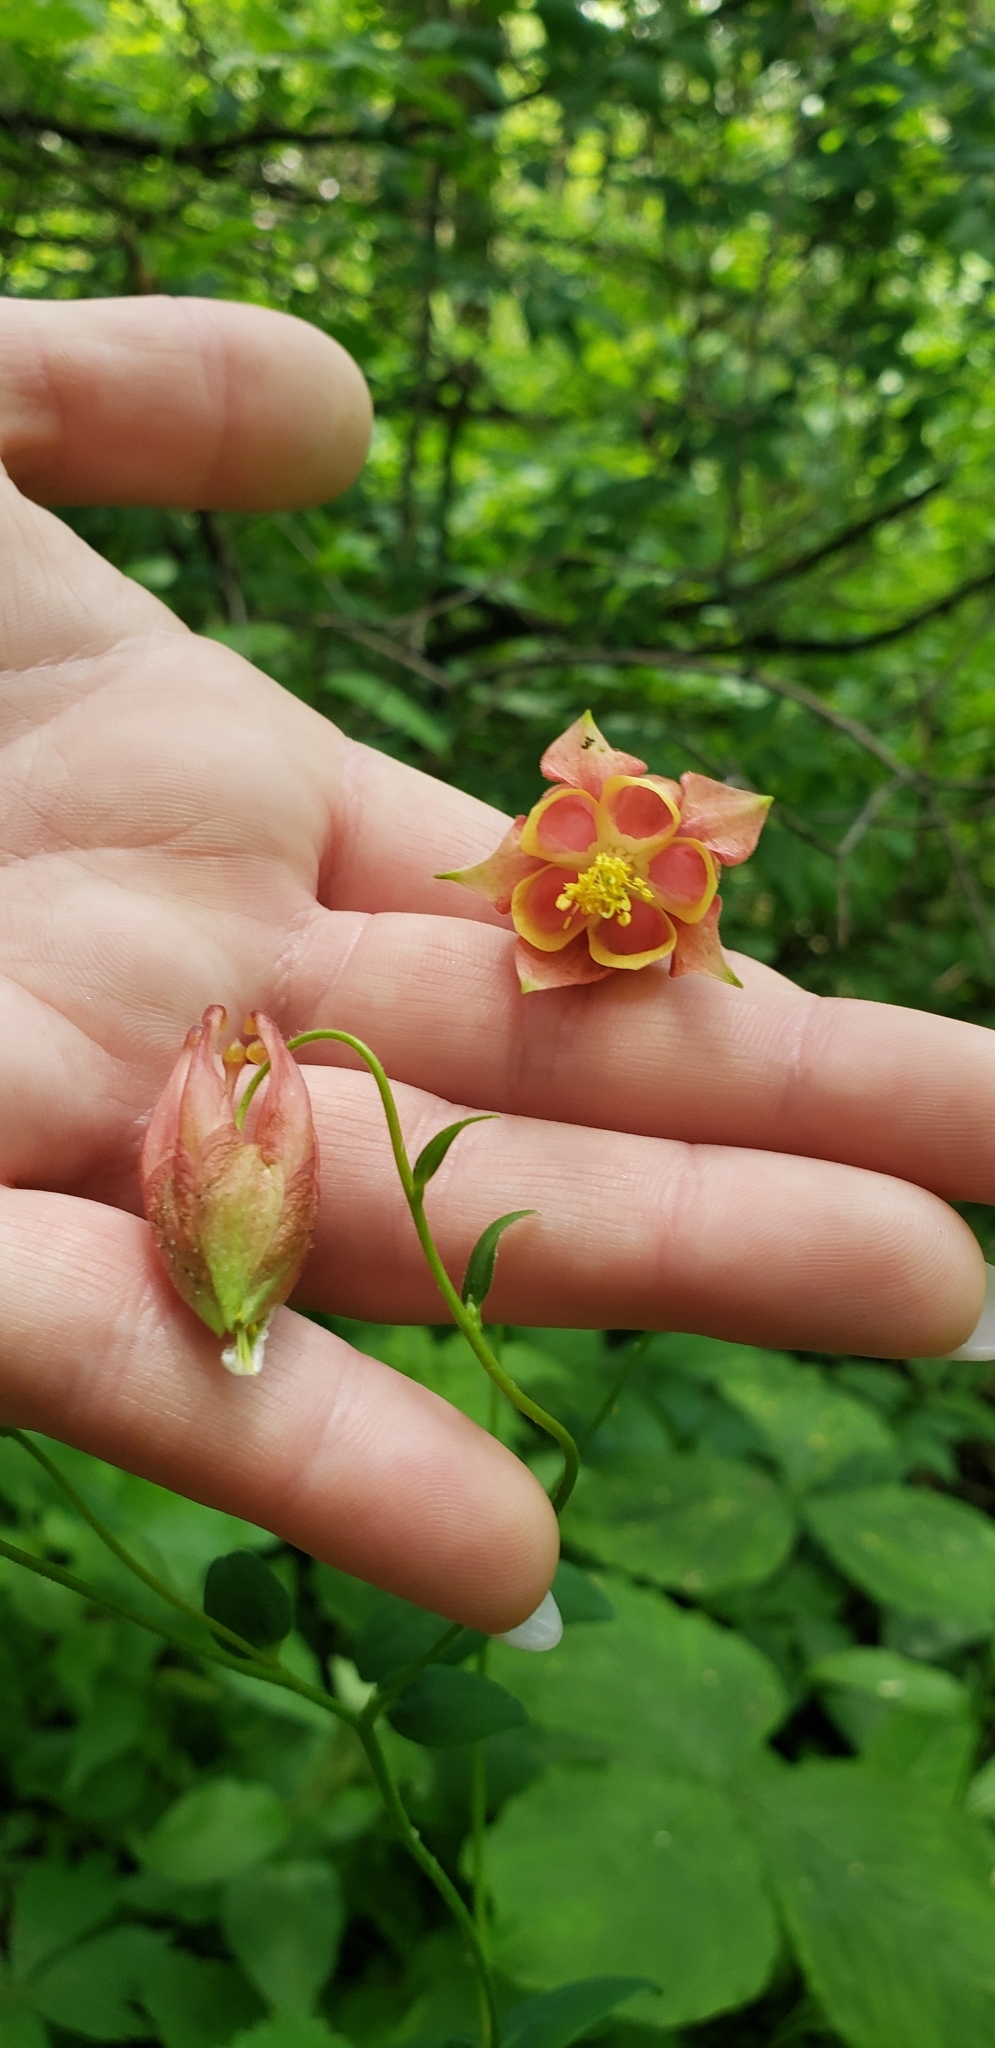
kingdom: Plantae
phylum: Tracheophyta
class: Magnoliopsida
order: Ranunculales
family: Ranunculaceae
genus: Aquilegia
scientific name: Aquilegia canadensis
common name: American columbine
